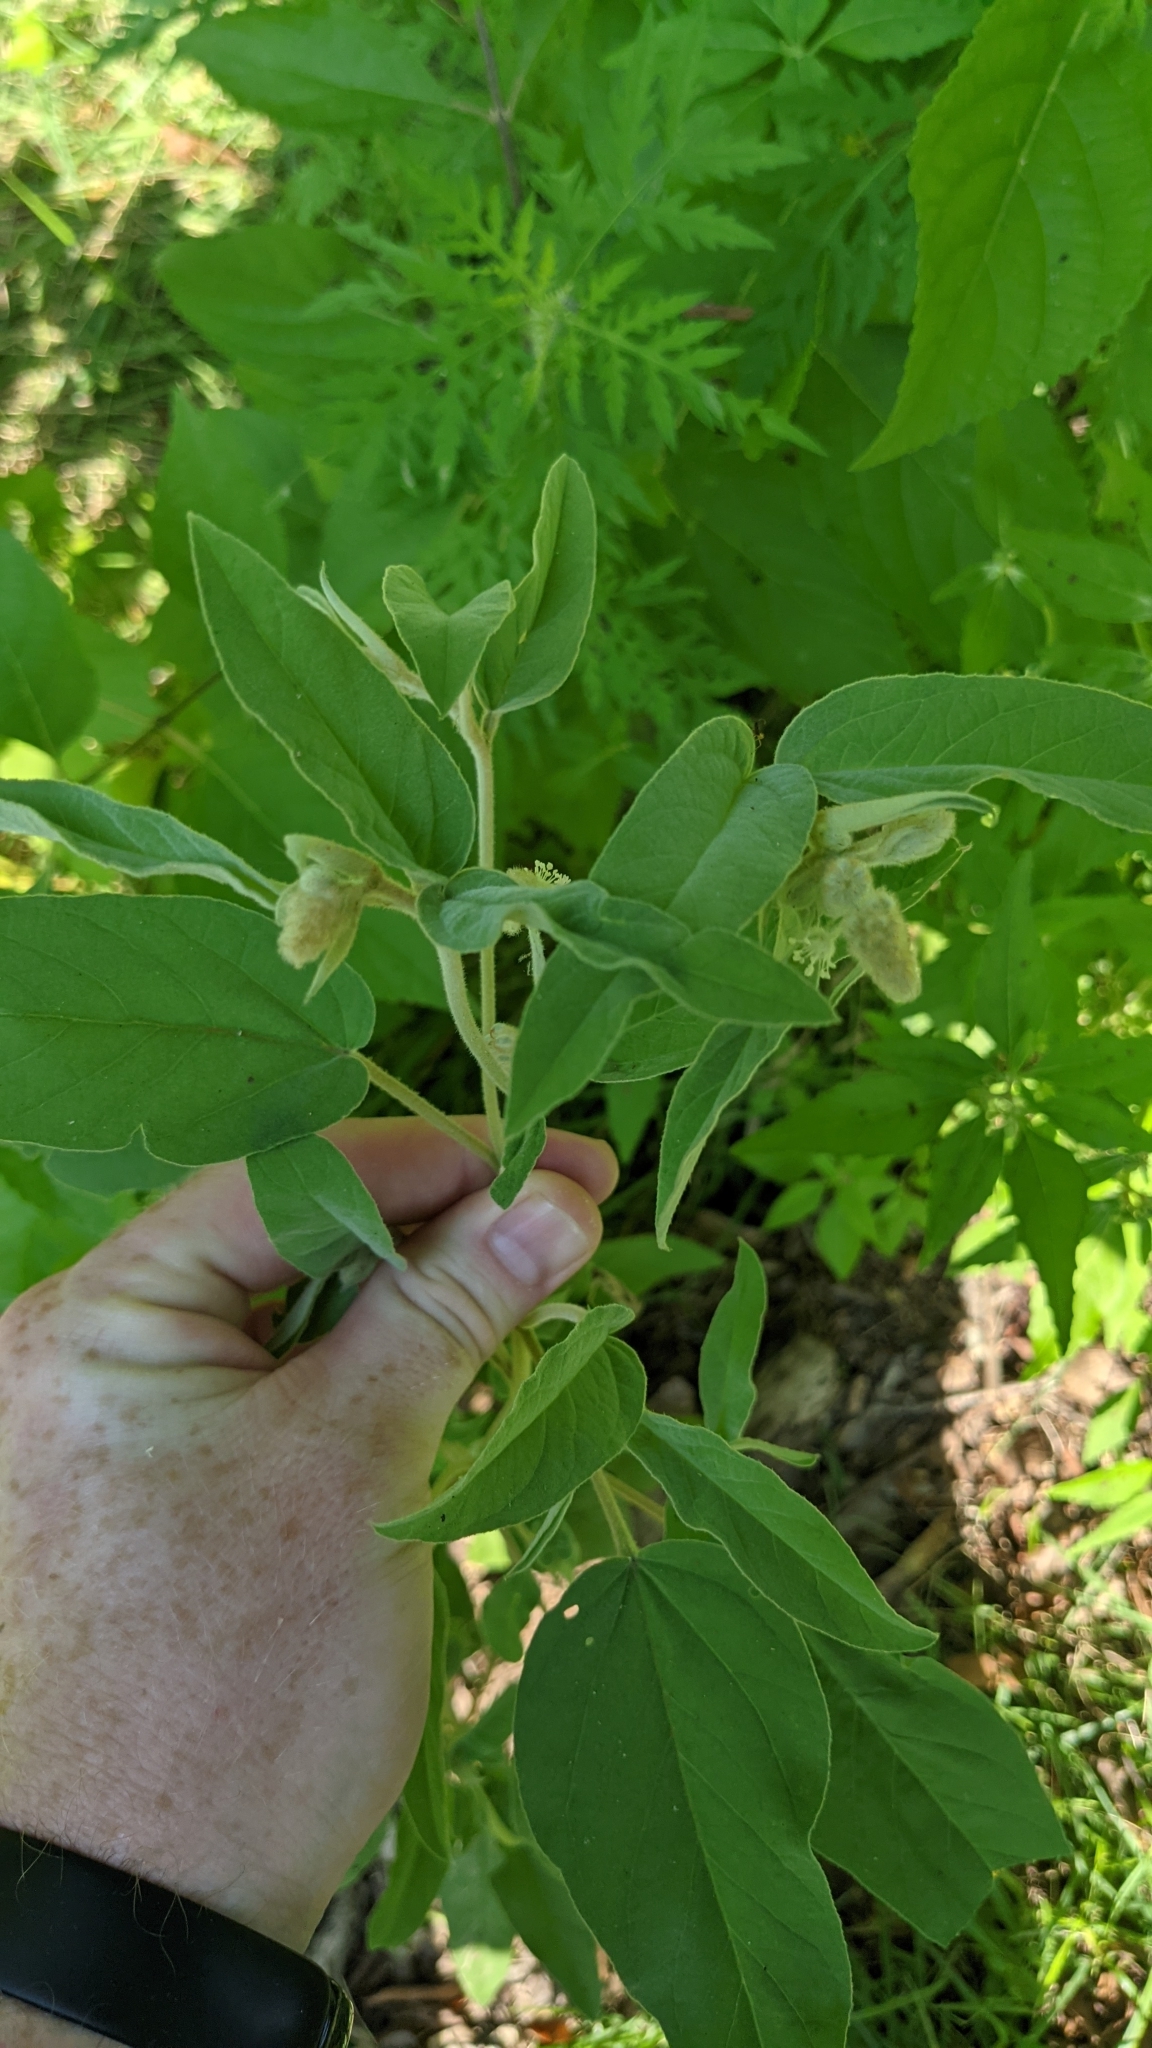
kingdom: Plantae
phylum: Tracheophyta
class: Magnoliopsida
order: Malpighiales
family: Euphorbiaceae
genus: Croton
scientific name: Croton lindheimeri
